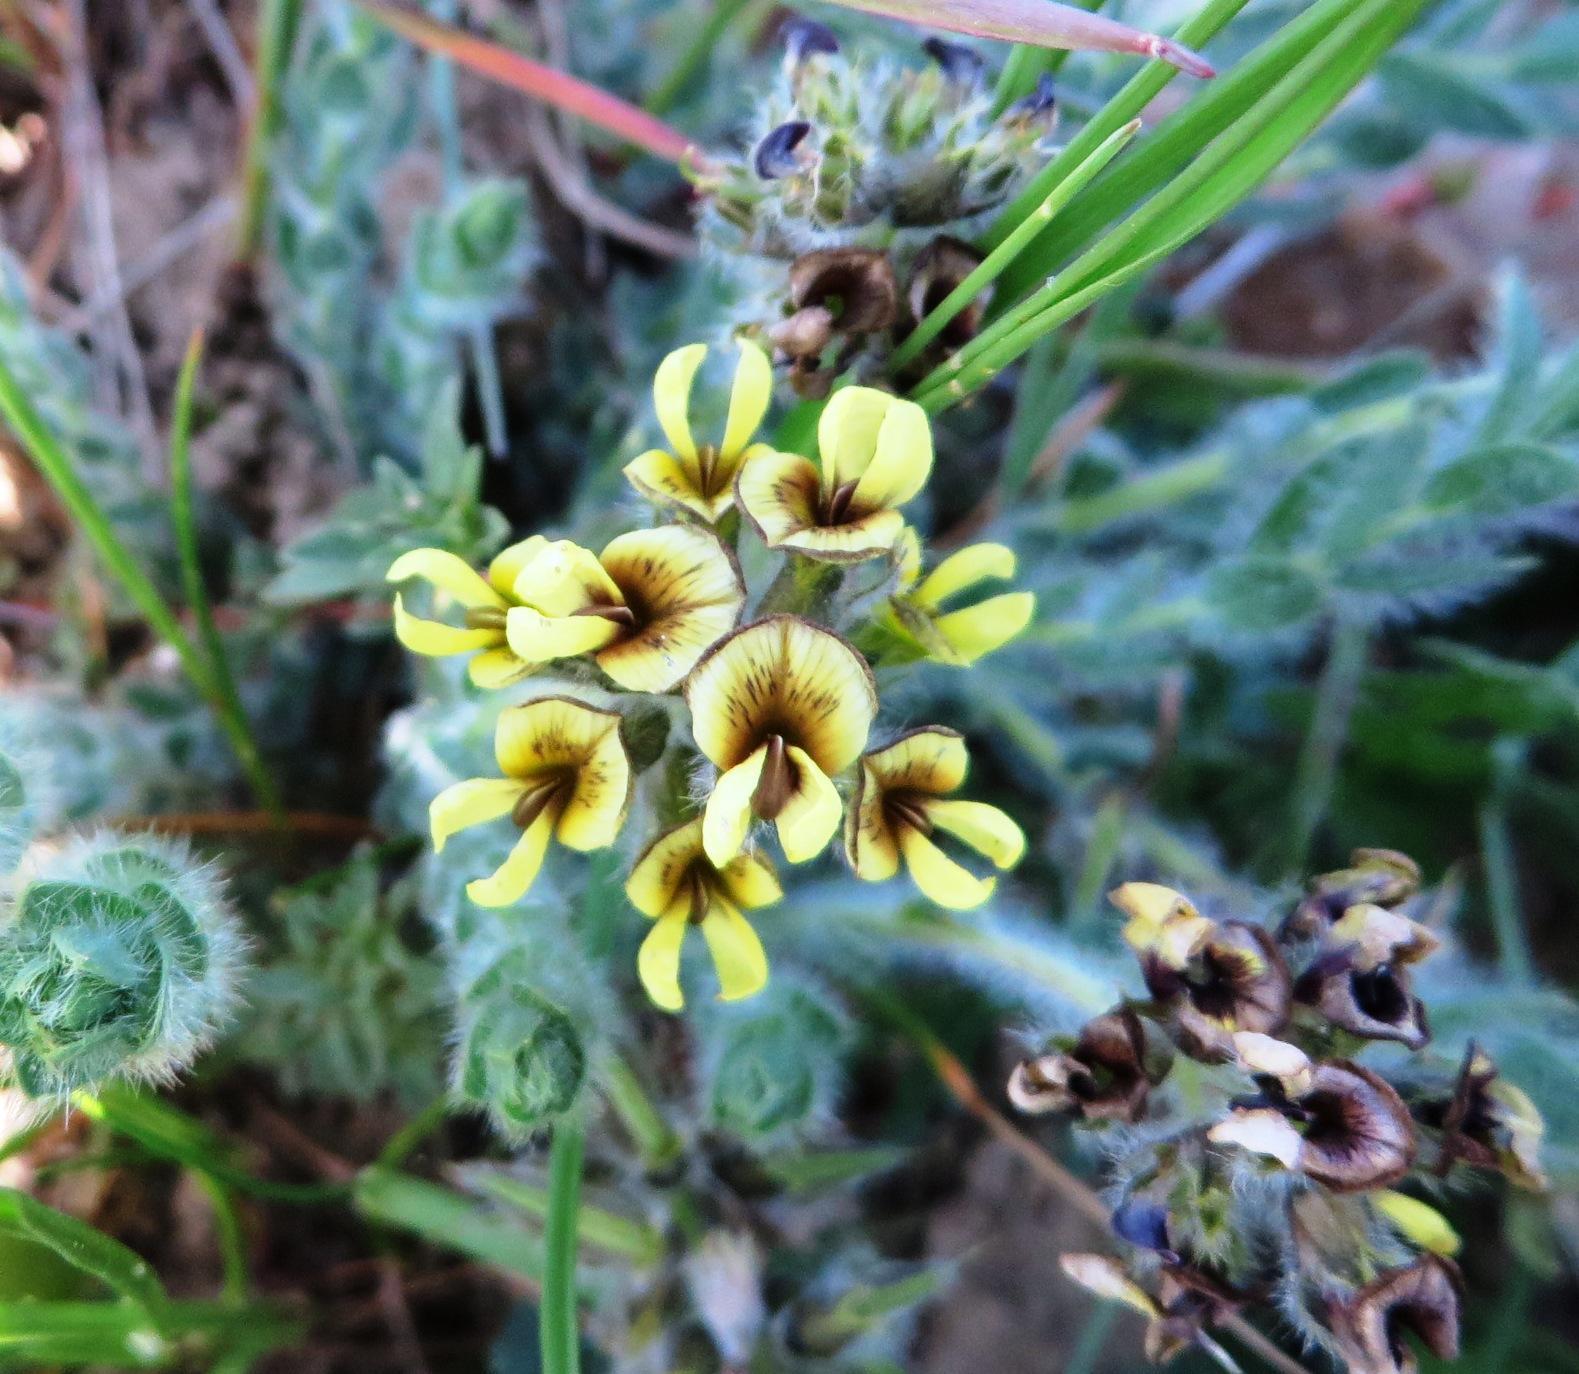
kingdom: Plantae
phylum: Tracheophyta
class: Magnoliopsida
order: Fabales
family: Fabaceae
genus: Euchlora
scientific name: Euchlora hirsuta
